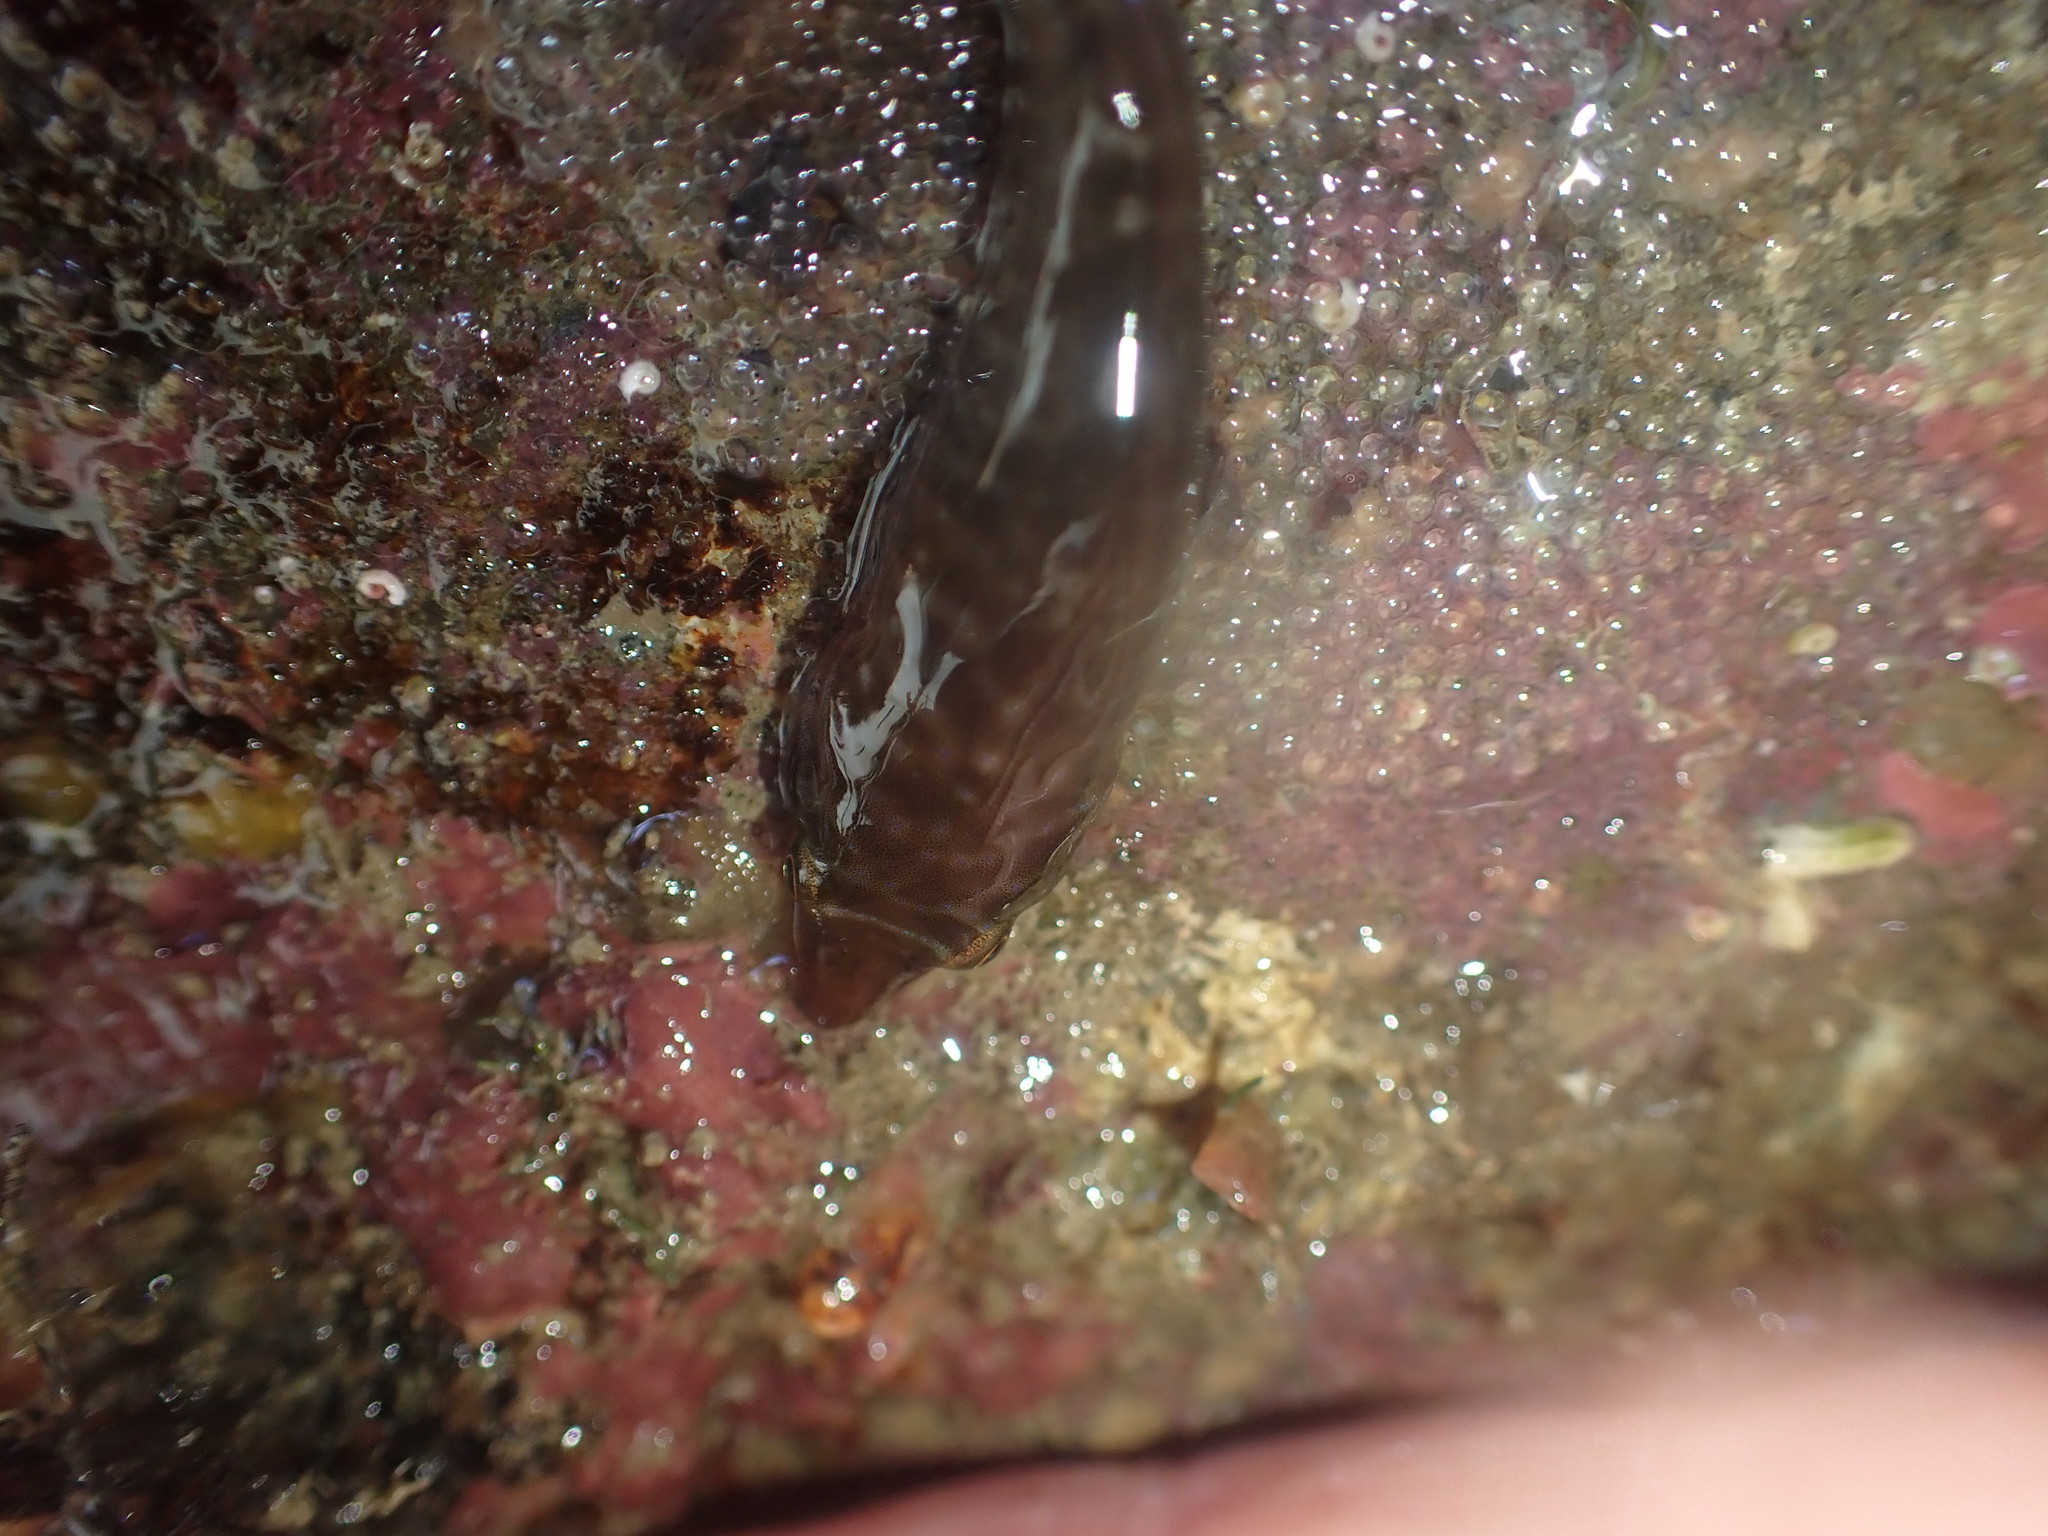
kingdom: Animalia
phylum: Chordata
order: Gobiesociformes
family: Gobiesocidae
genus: Dellichthys
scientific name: Dellichthys morelandi
